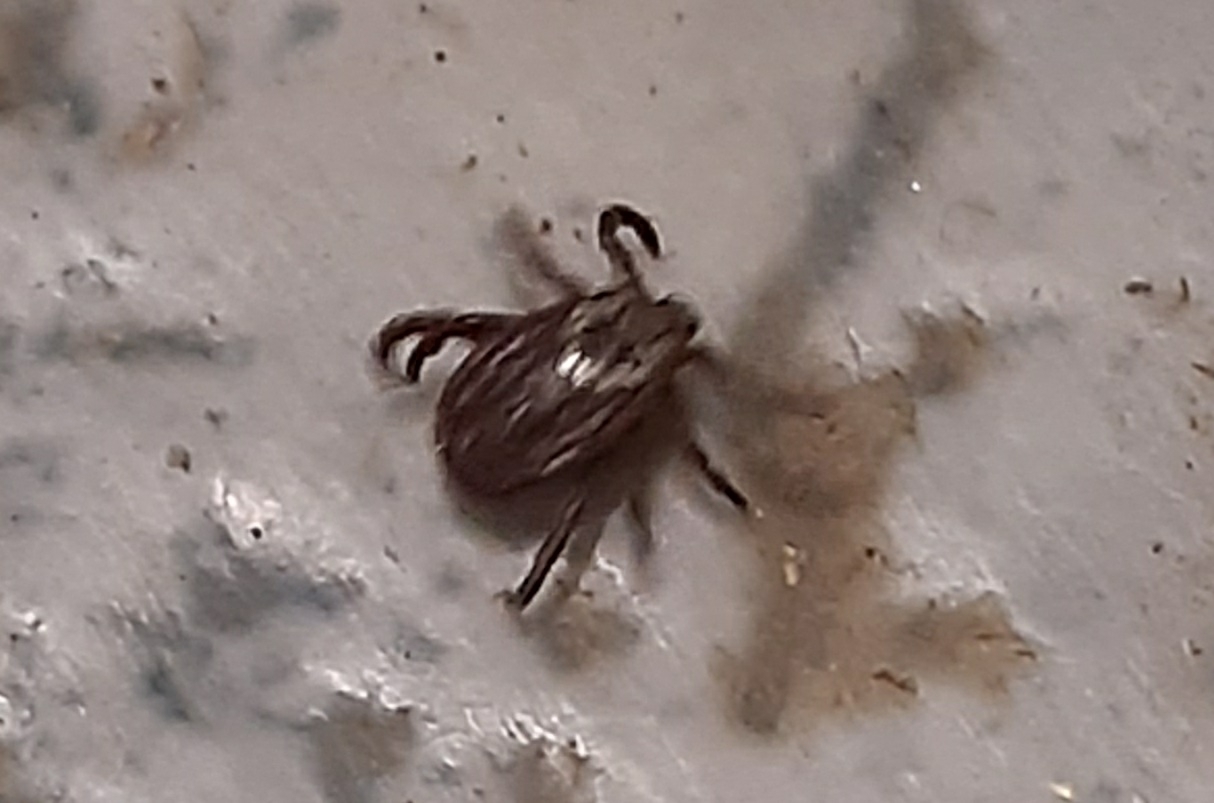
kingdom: Animalia
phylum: Arthropoda
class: Arachnida
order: Ixodida
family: Ixodidae
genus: Dermacentor
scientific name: Dermacentor reticulatus
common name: Ornate cow tick
